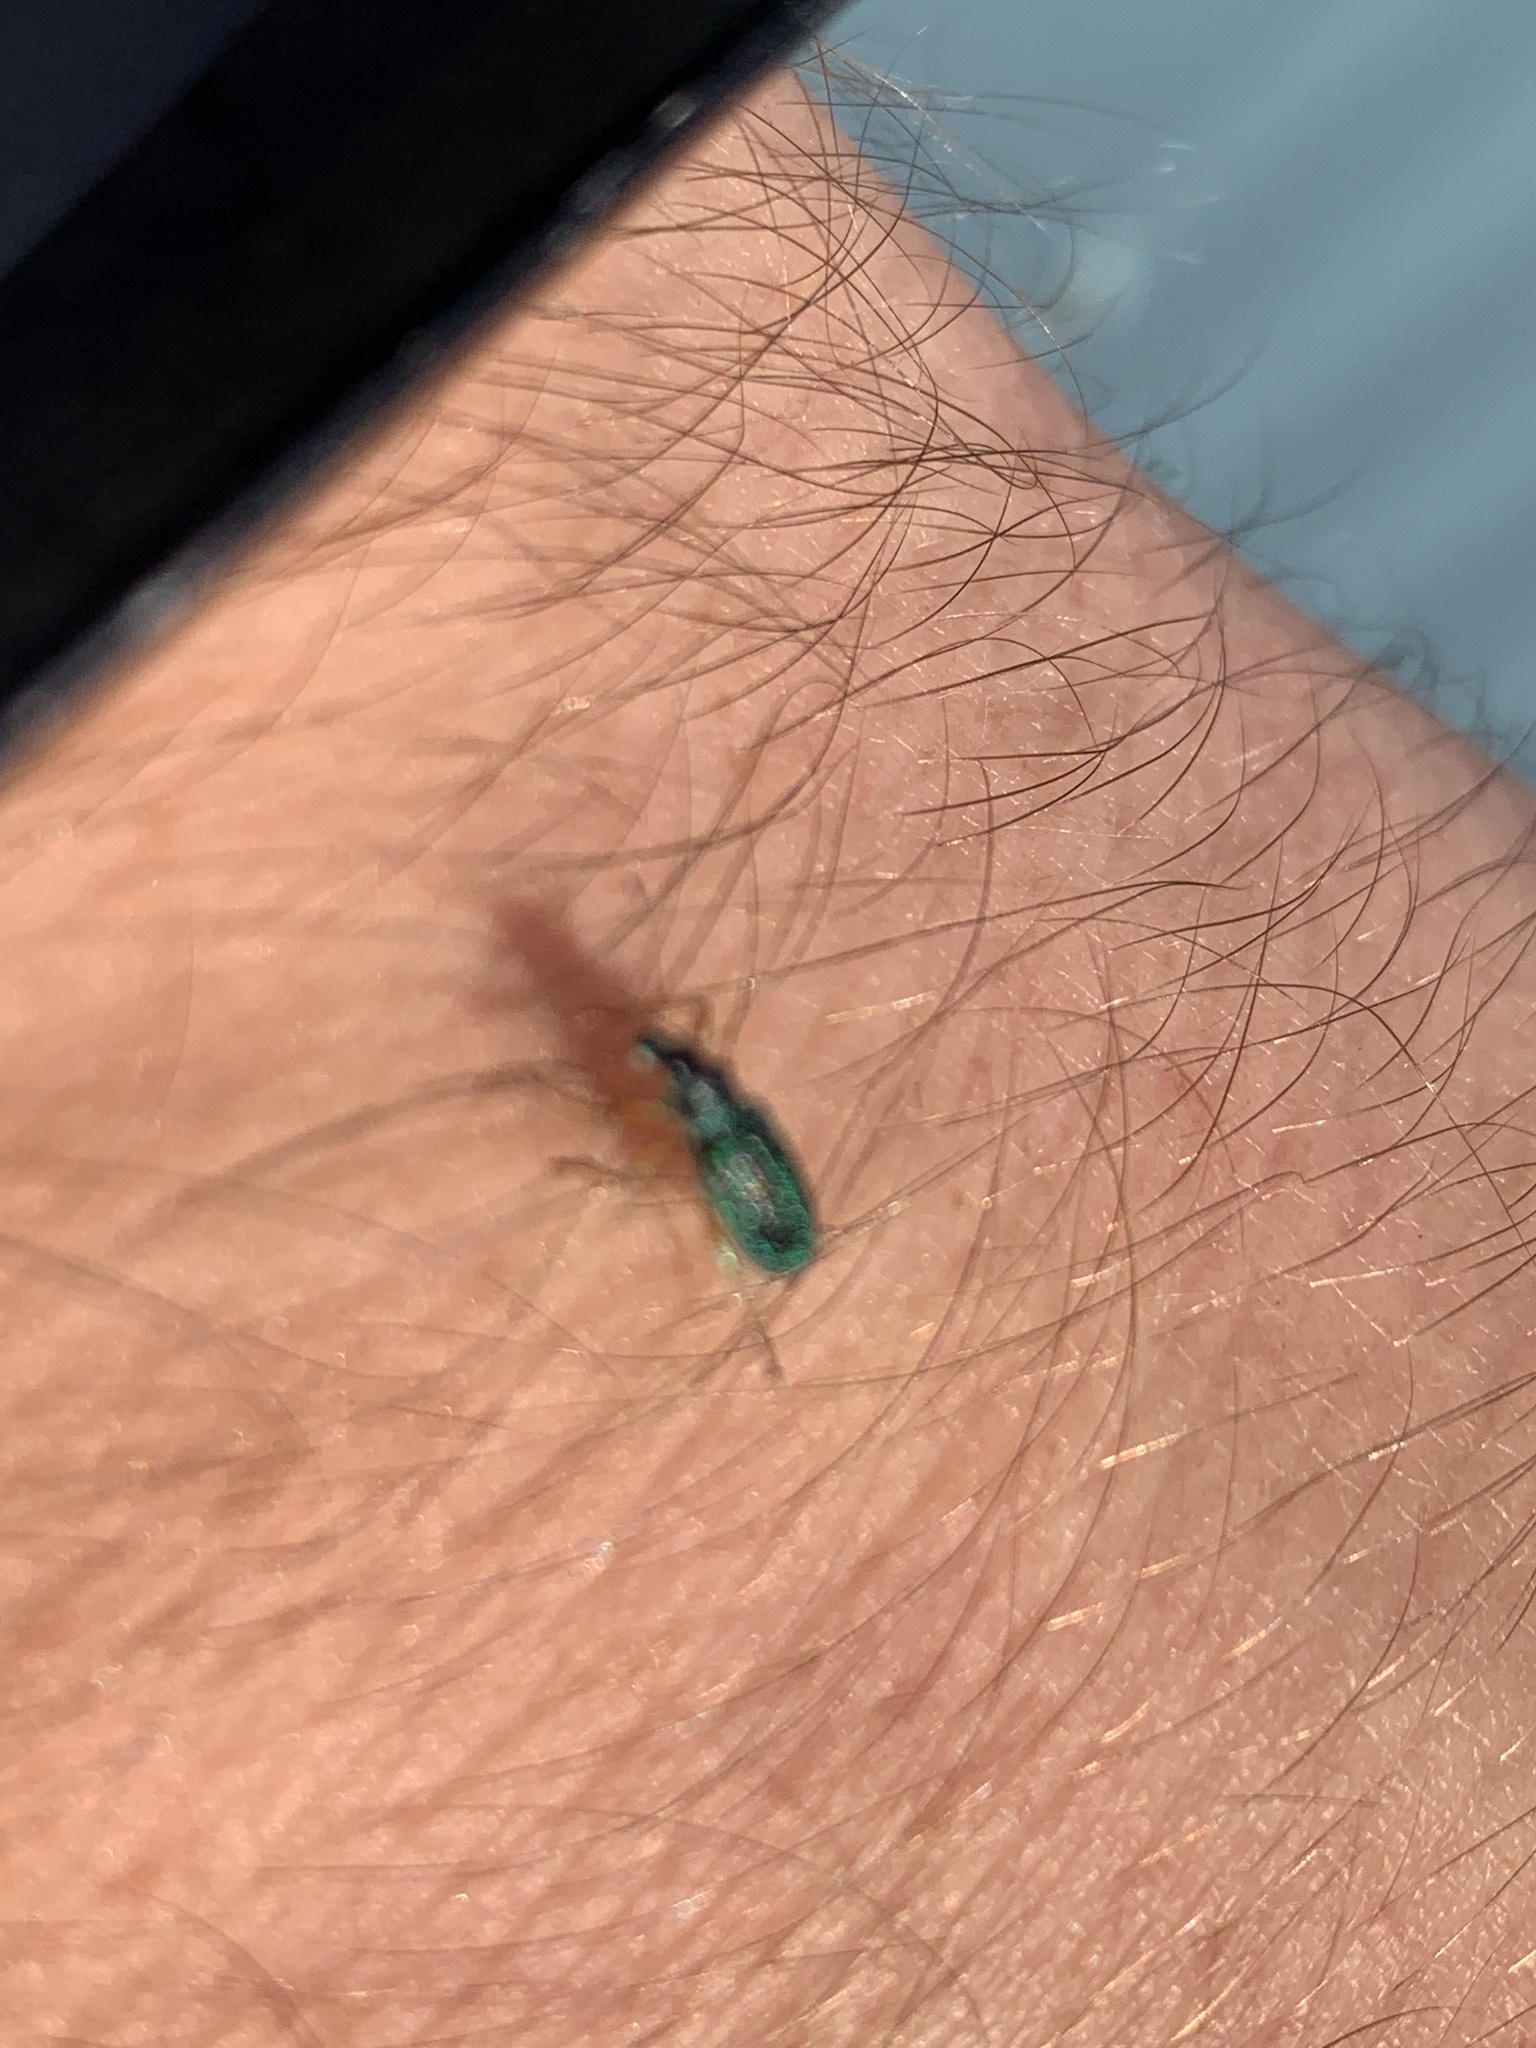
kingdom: Animalia
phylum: Arthropoda
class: Insecta
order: Coleoptera
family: Curculionidae
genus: Polydrusus
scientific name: Polydrusus formosus
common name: Weevil
